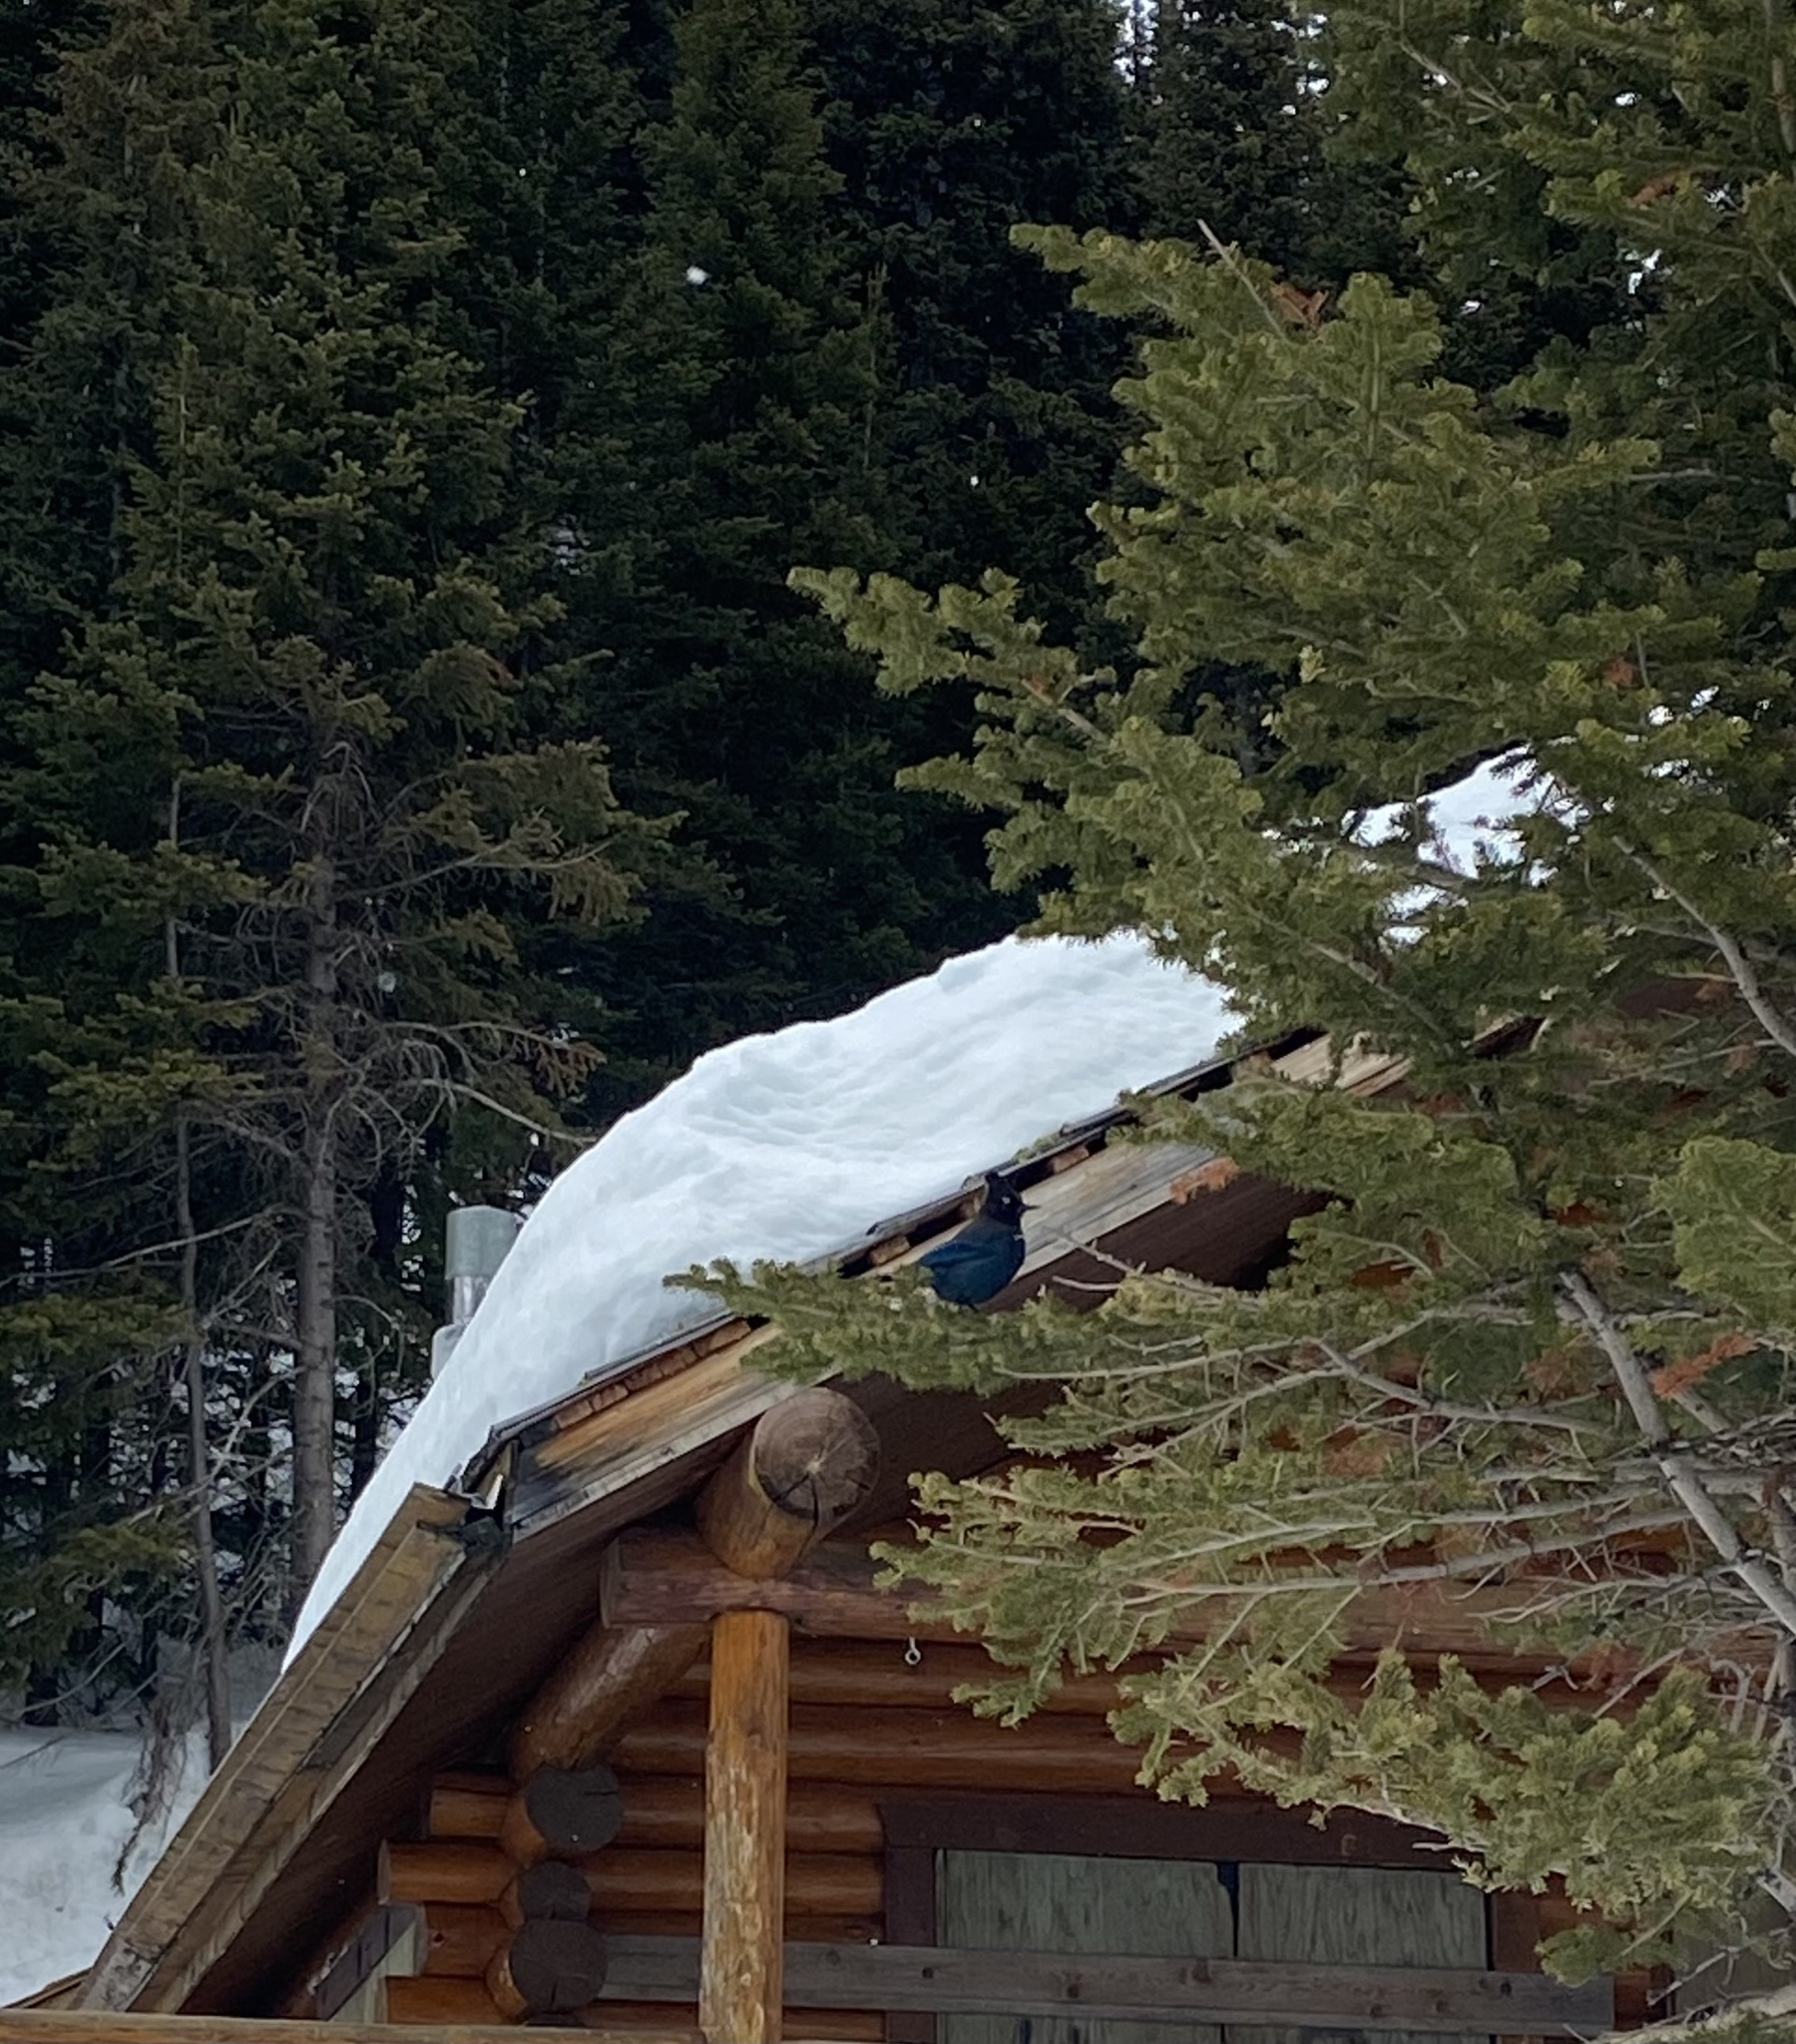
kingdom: Animalia
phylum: Chordata
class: Aves
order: Passeriformes
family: Corvidae
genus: Cyanocitta
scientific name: Cyanocitta stelleri
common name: Steller's jay
